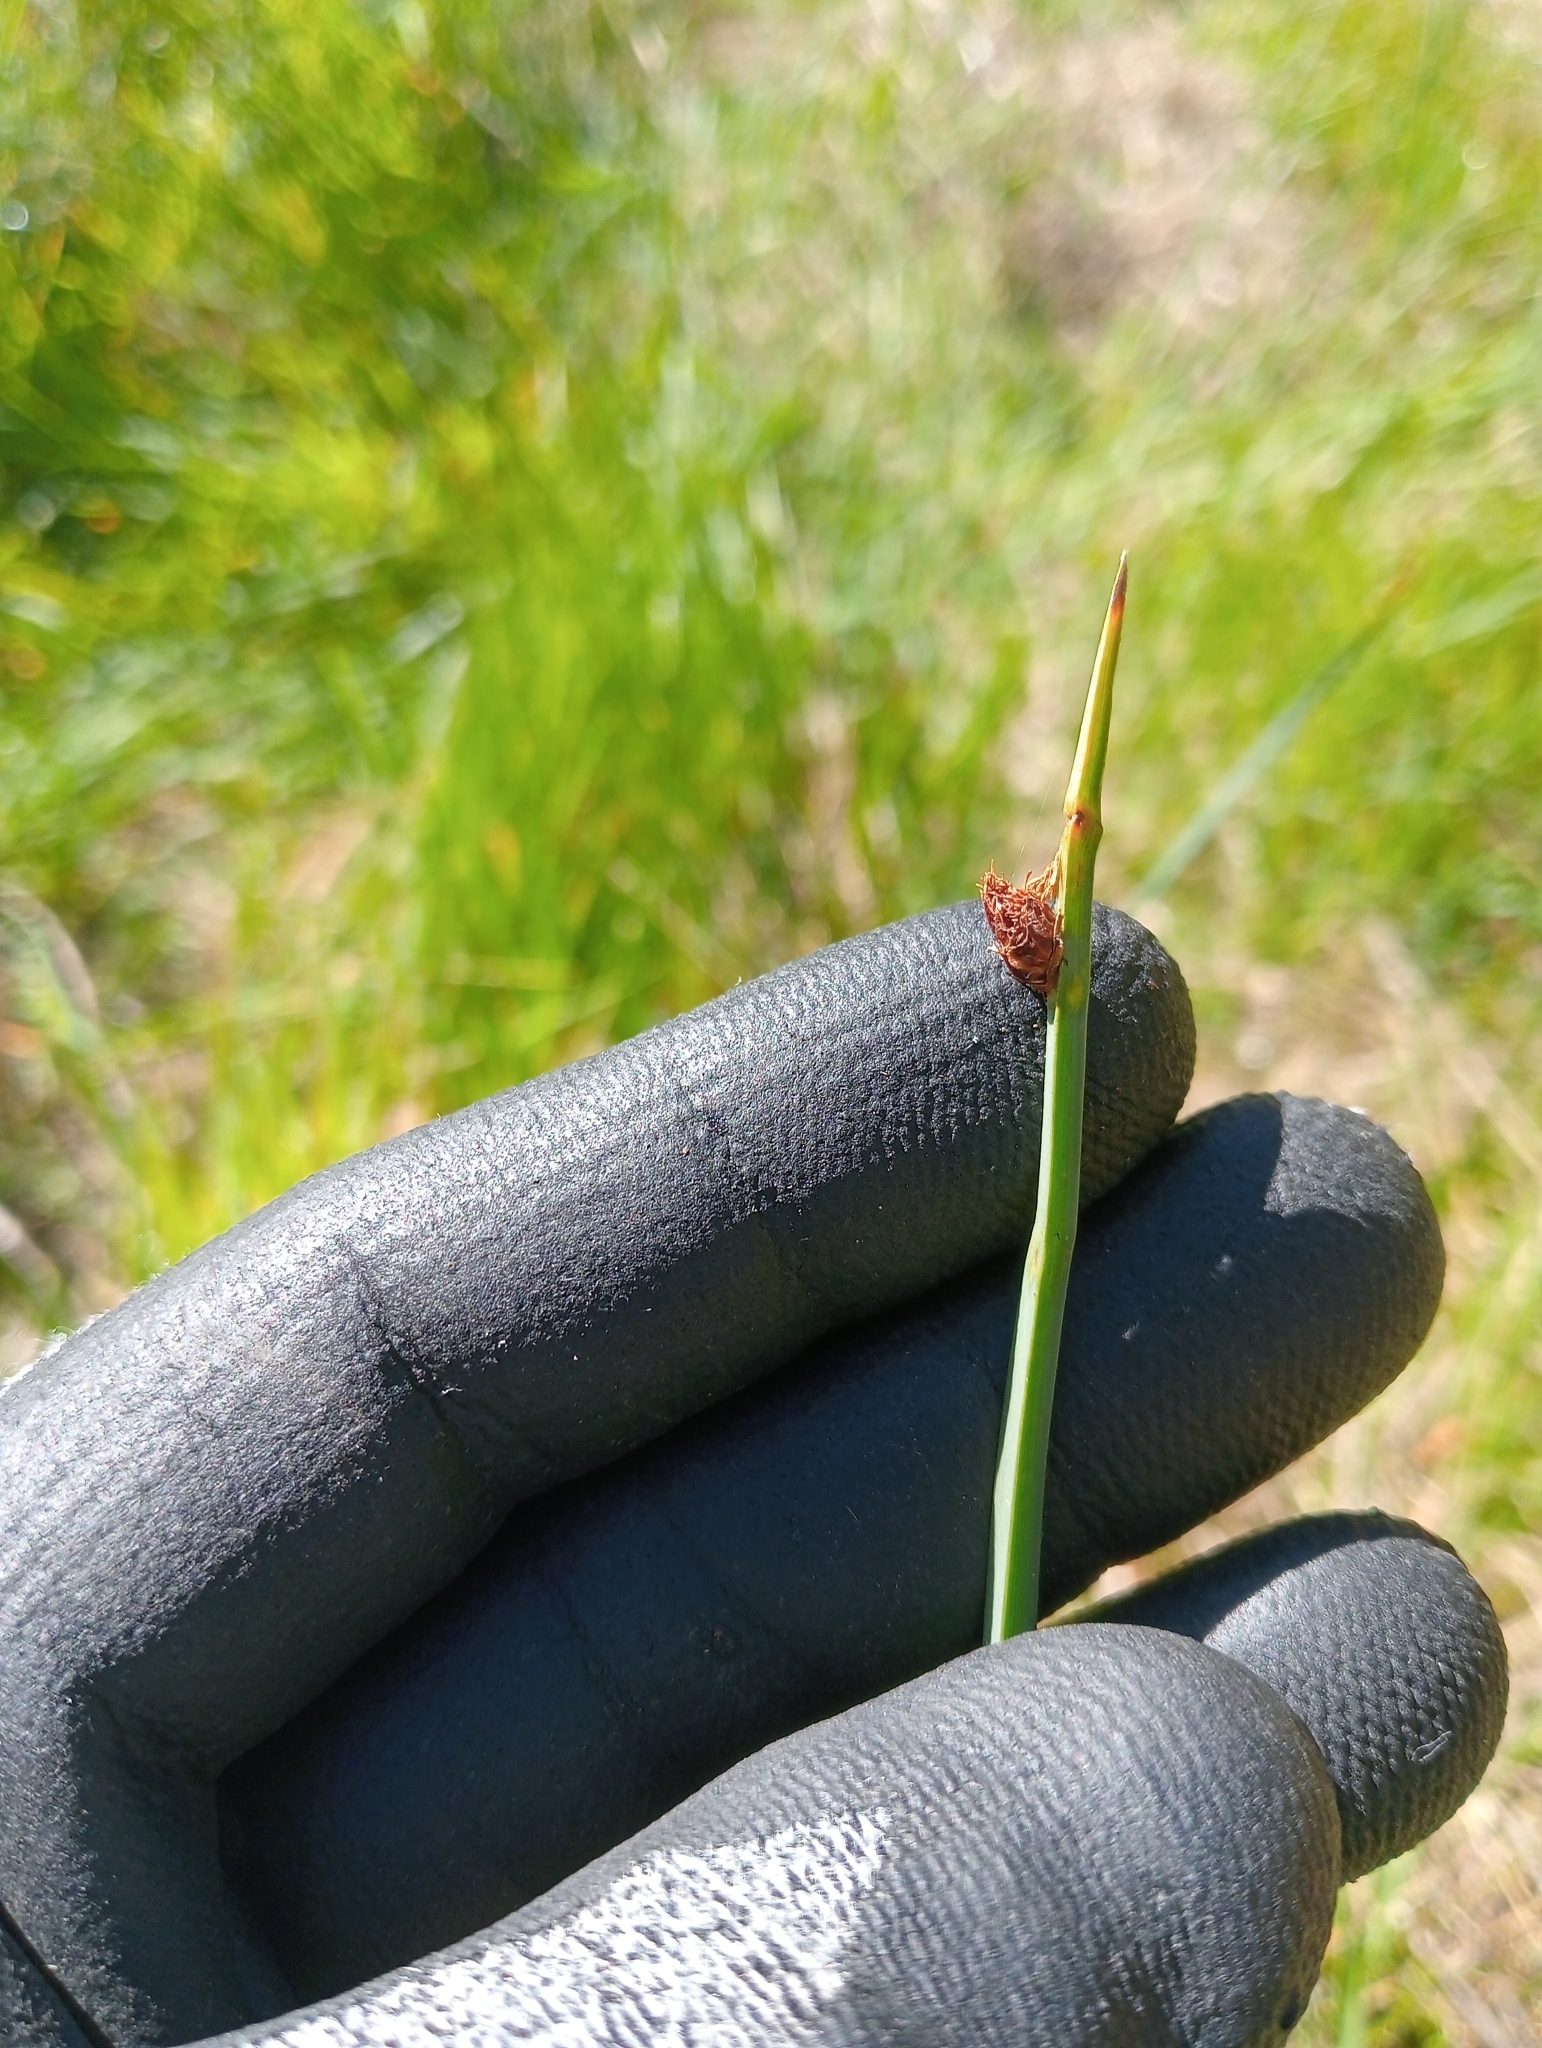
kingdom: Plantae
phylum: Tracheophyta
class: Liliopsida
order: Poales
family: Cyperaceae
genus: Schoenoplectus
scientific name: Schoenoplectus pungens
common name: Sharp club-rush
